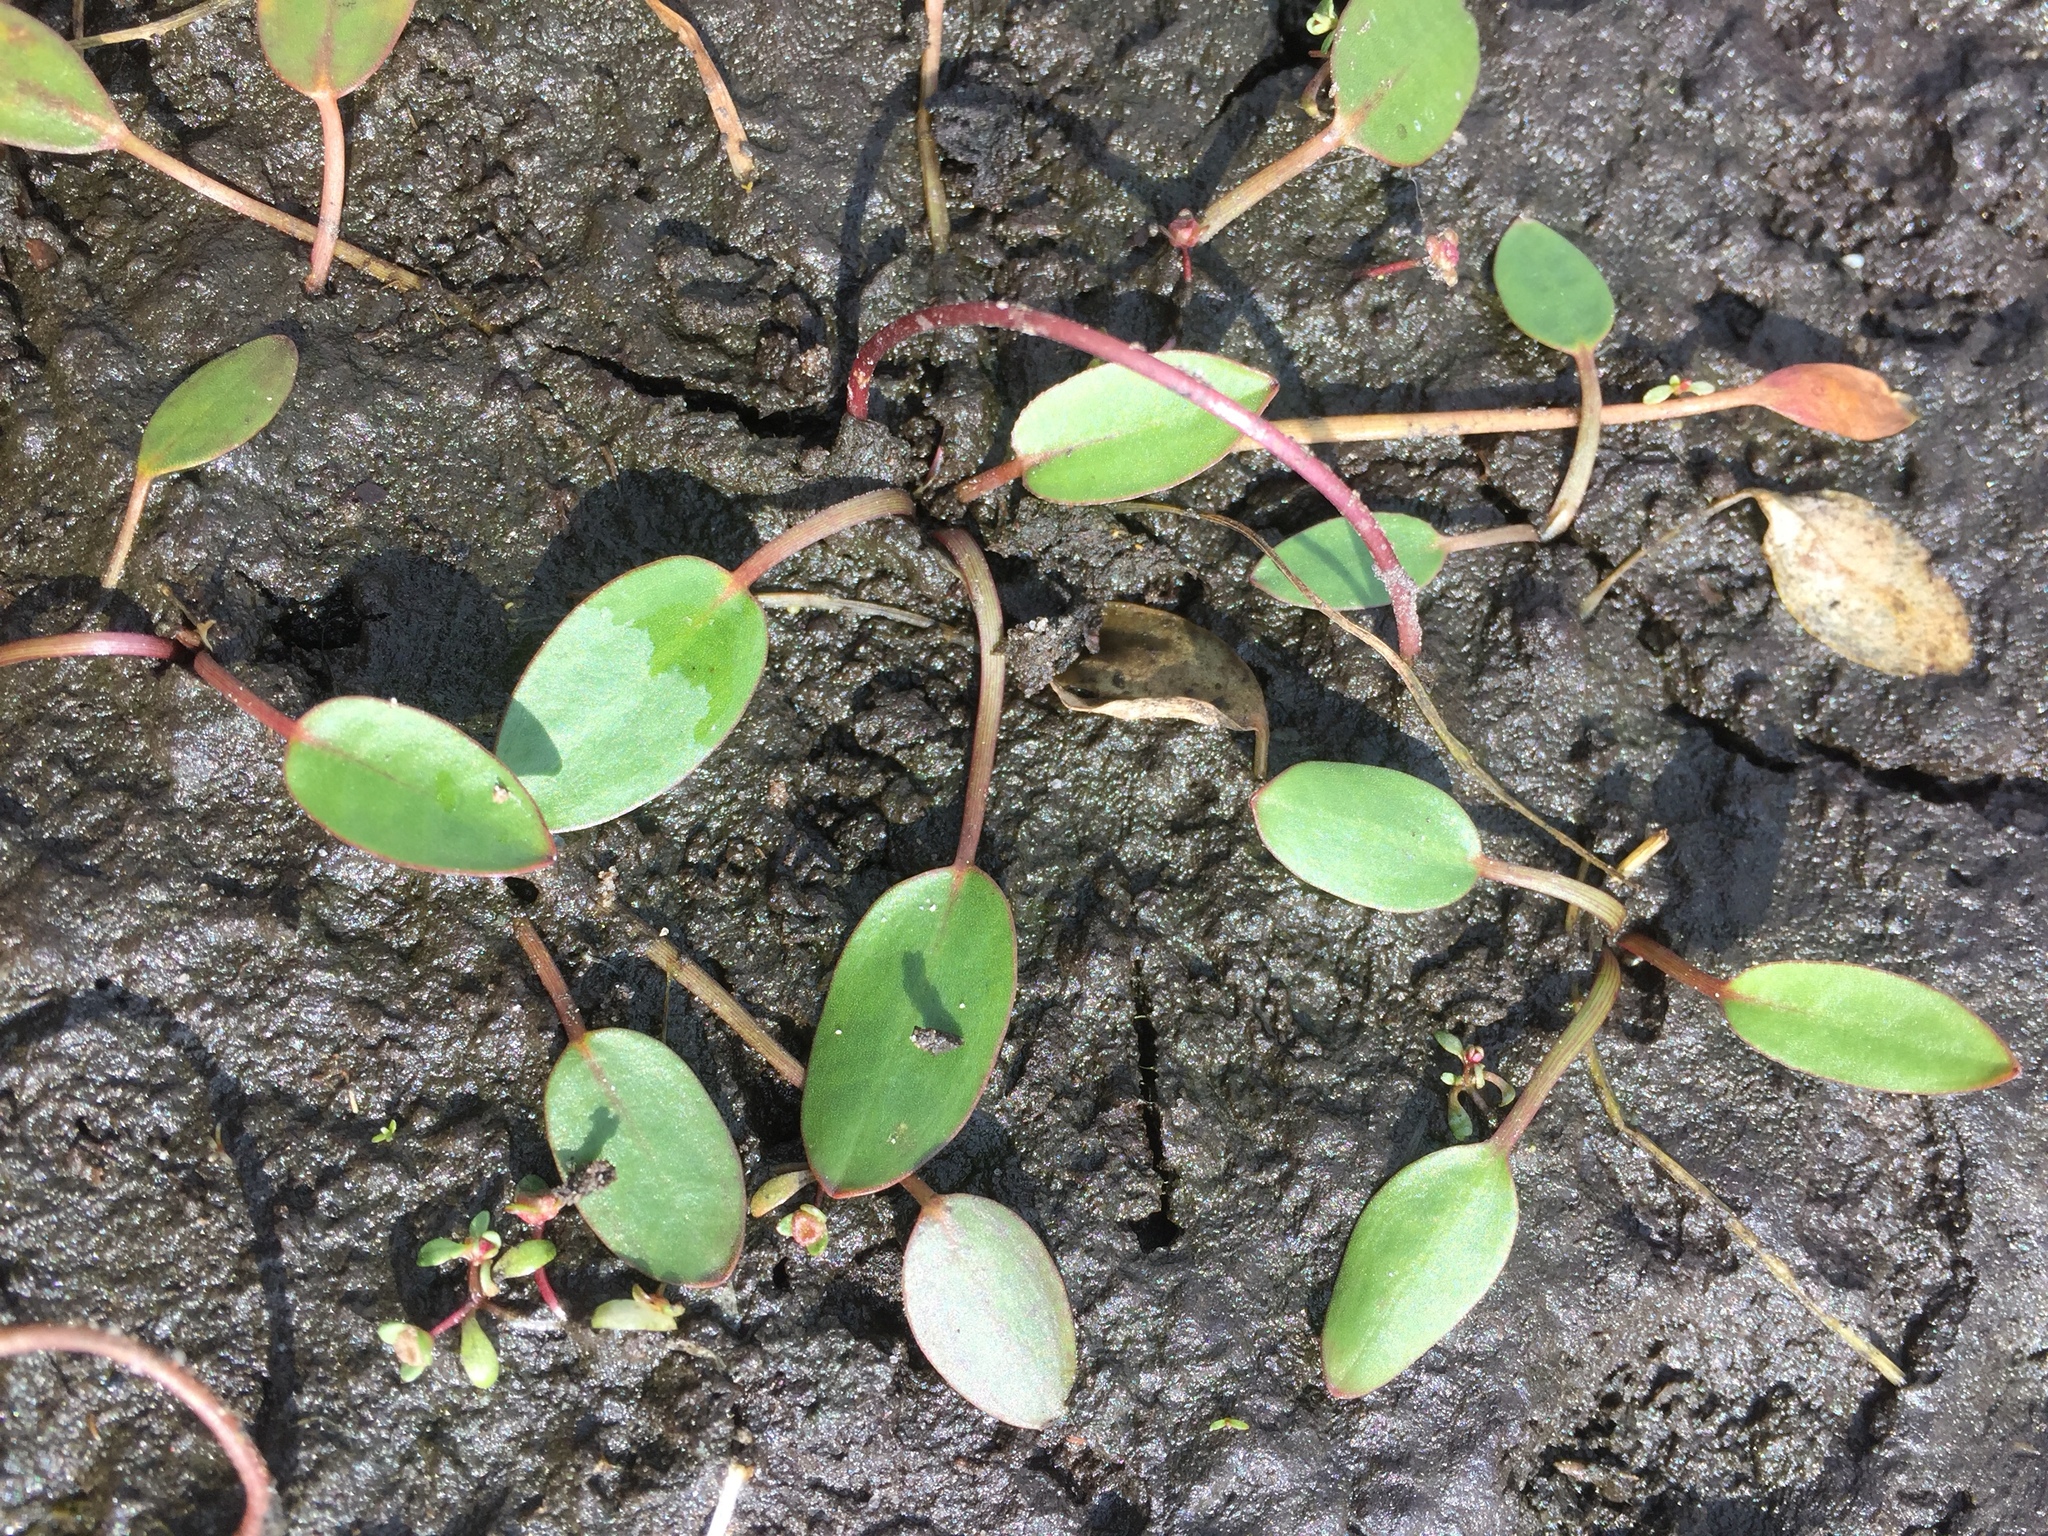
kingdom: Plantae
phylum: Tracheophyta
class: Liliopsida
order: Alismatales
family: Alismataceae
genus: Luronium
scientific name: Luronium natans
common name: Floating water-plantain
